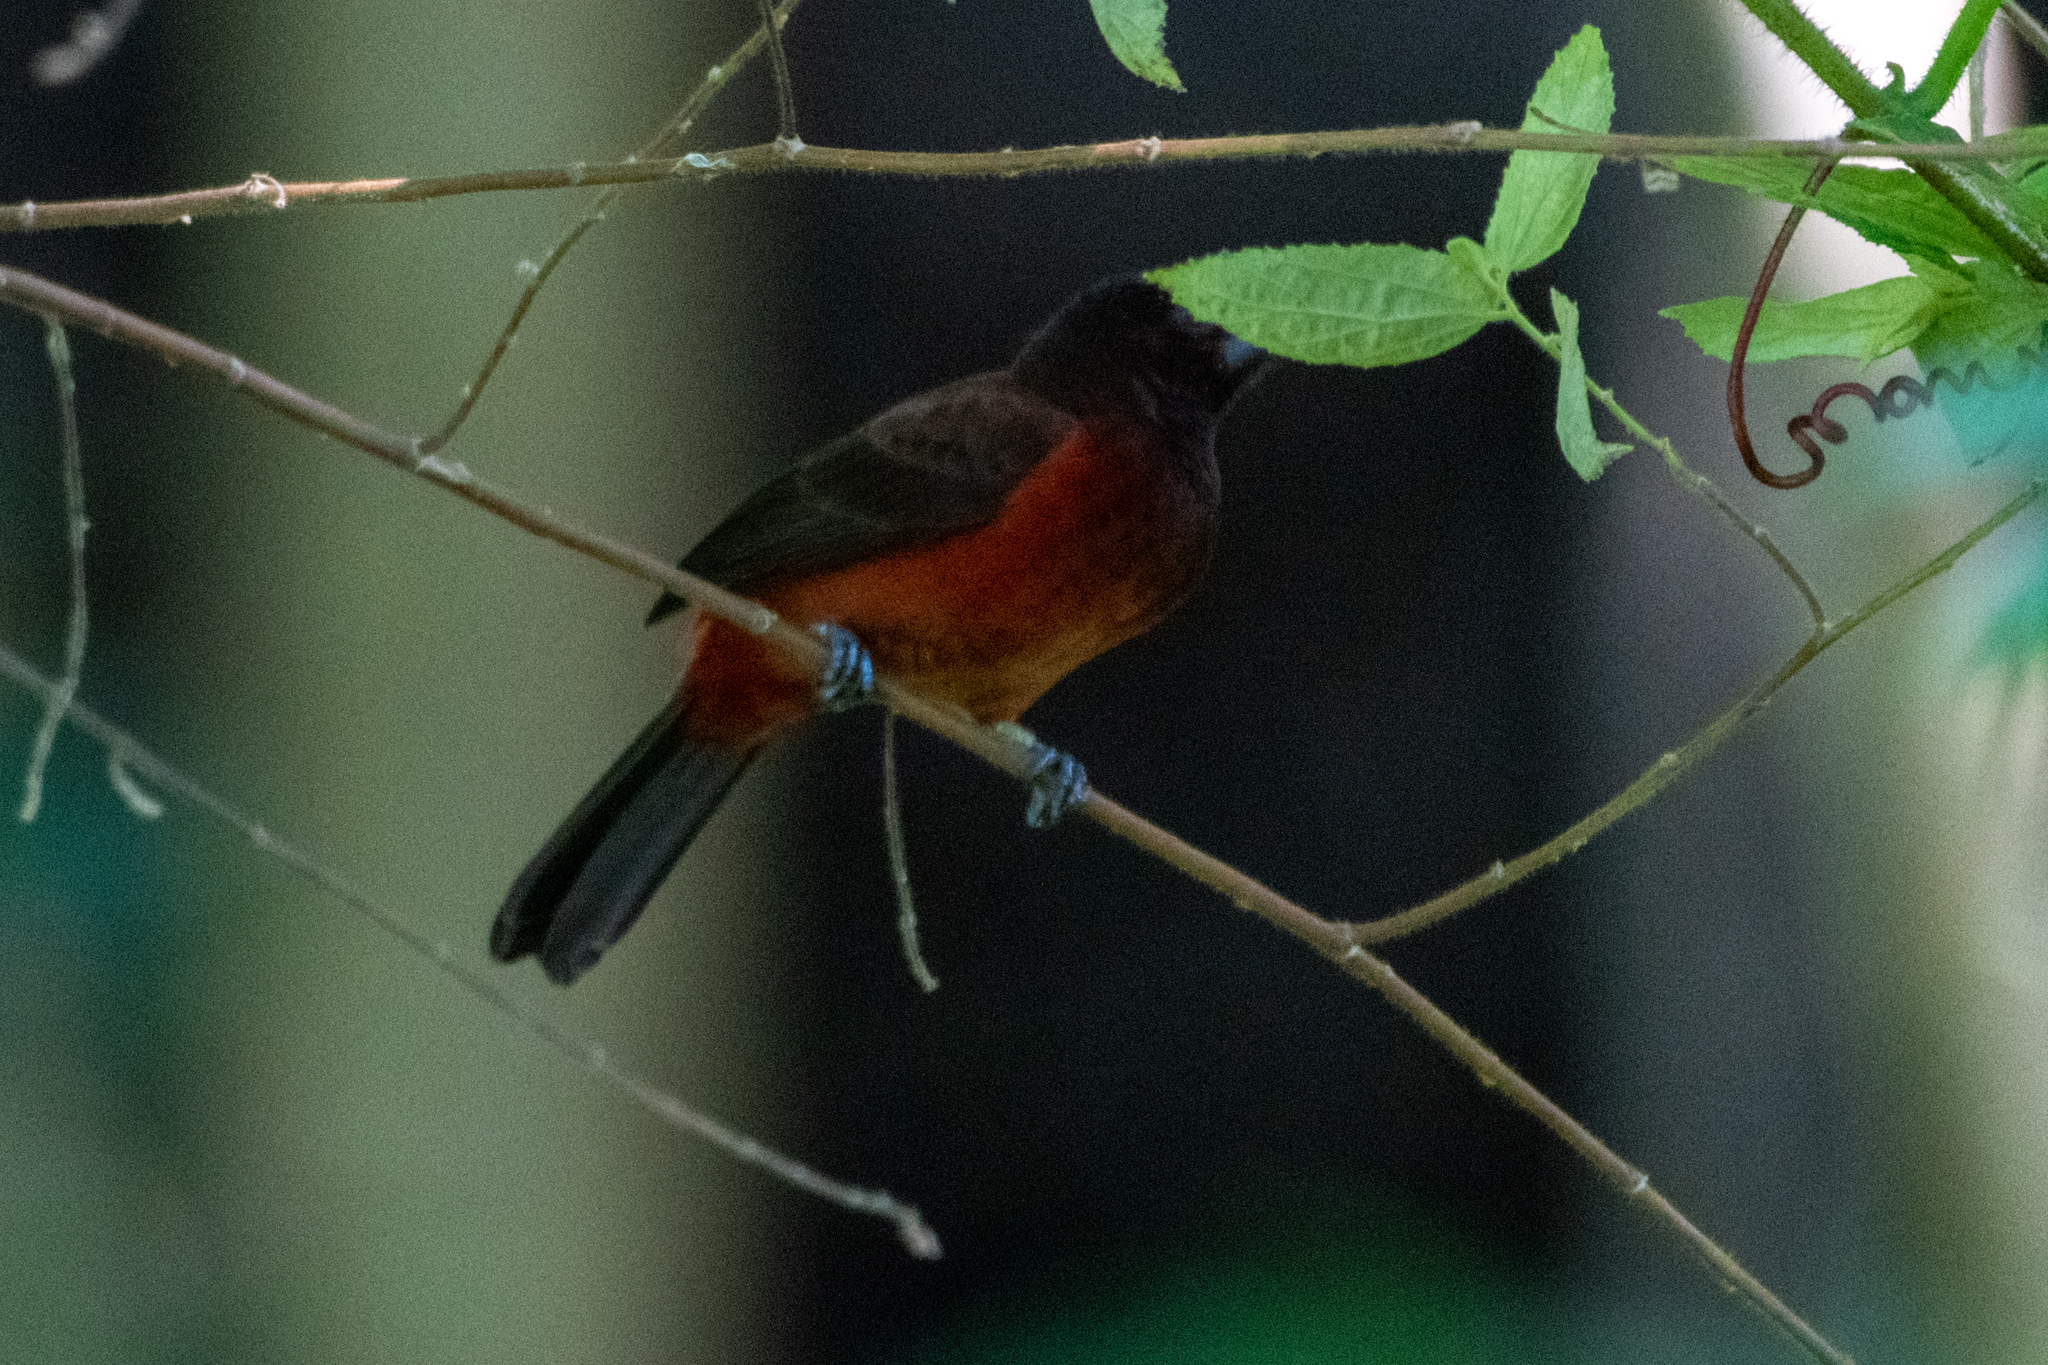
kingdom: Animalia
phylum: Chordata
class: Aves
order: Passeriformes
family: Thraupidae
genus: Ramphocelus
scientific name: Ramphocelus dimidiatus
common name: Crimson-backed tanager
